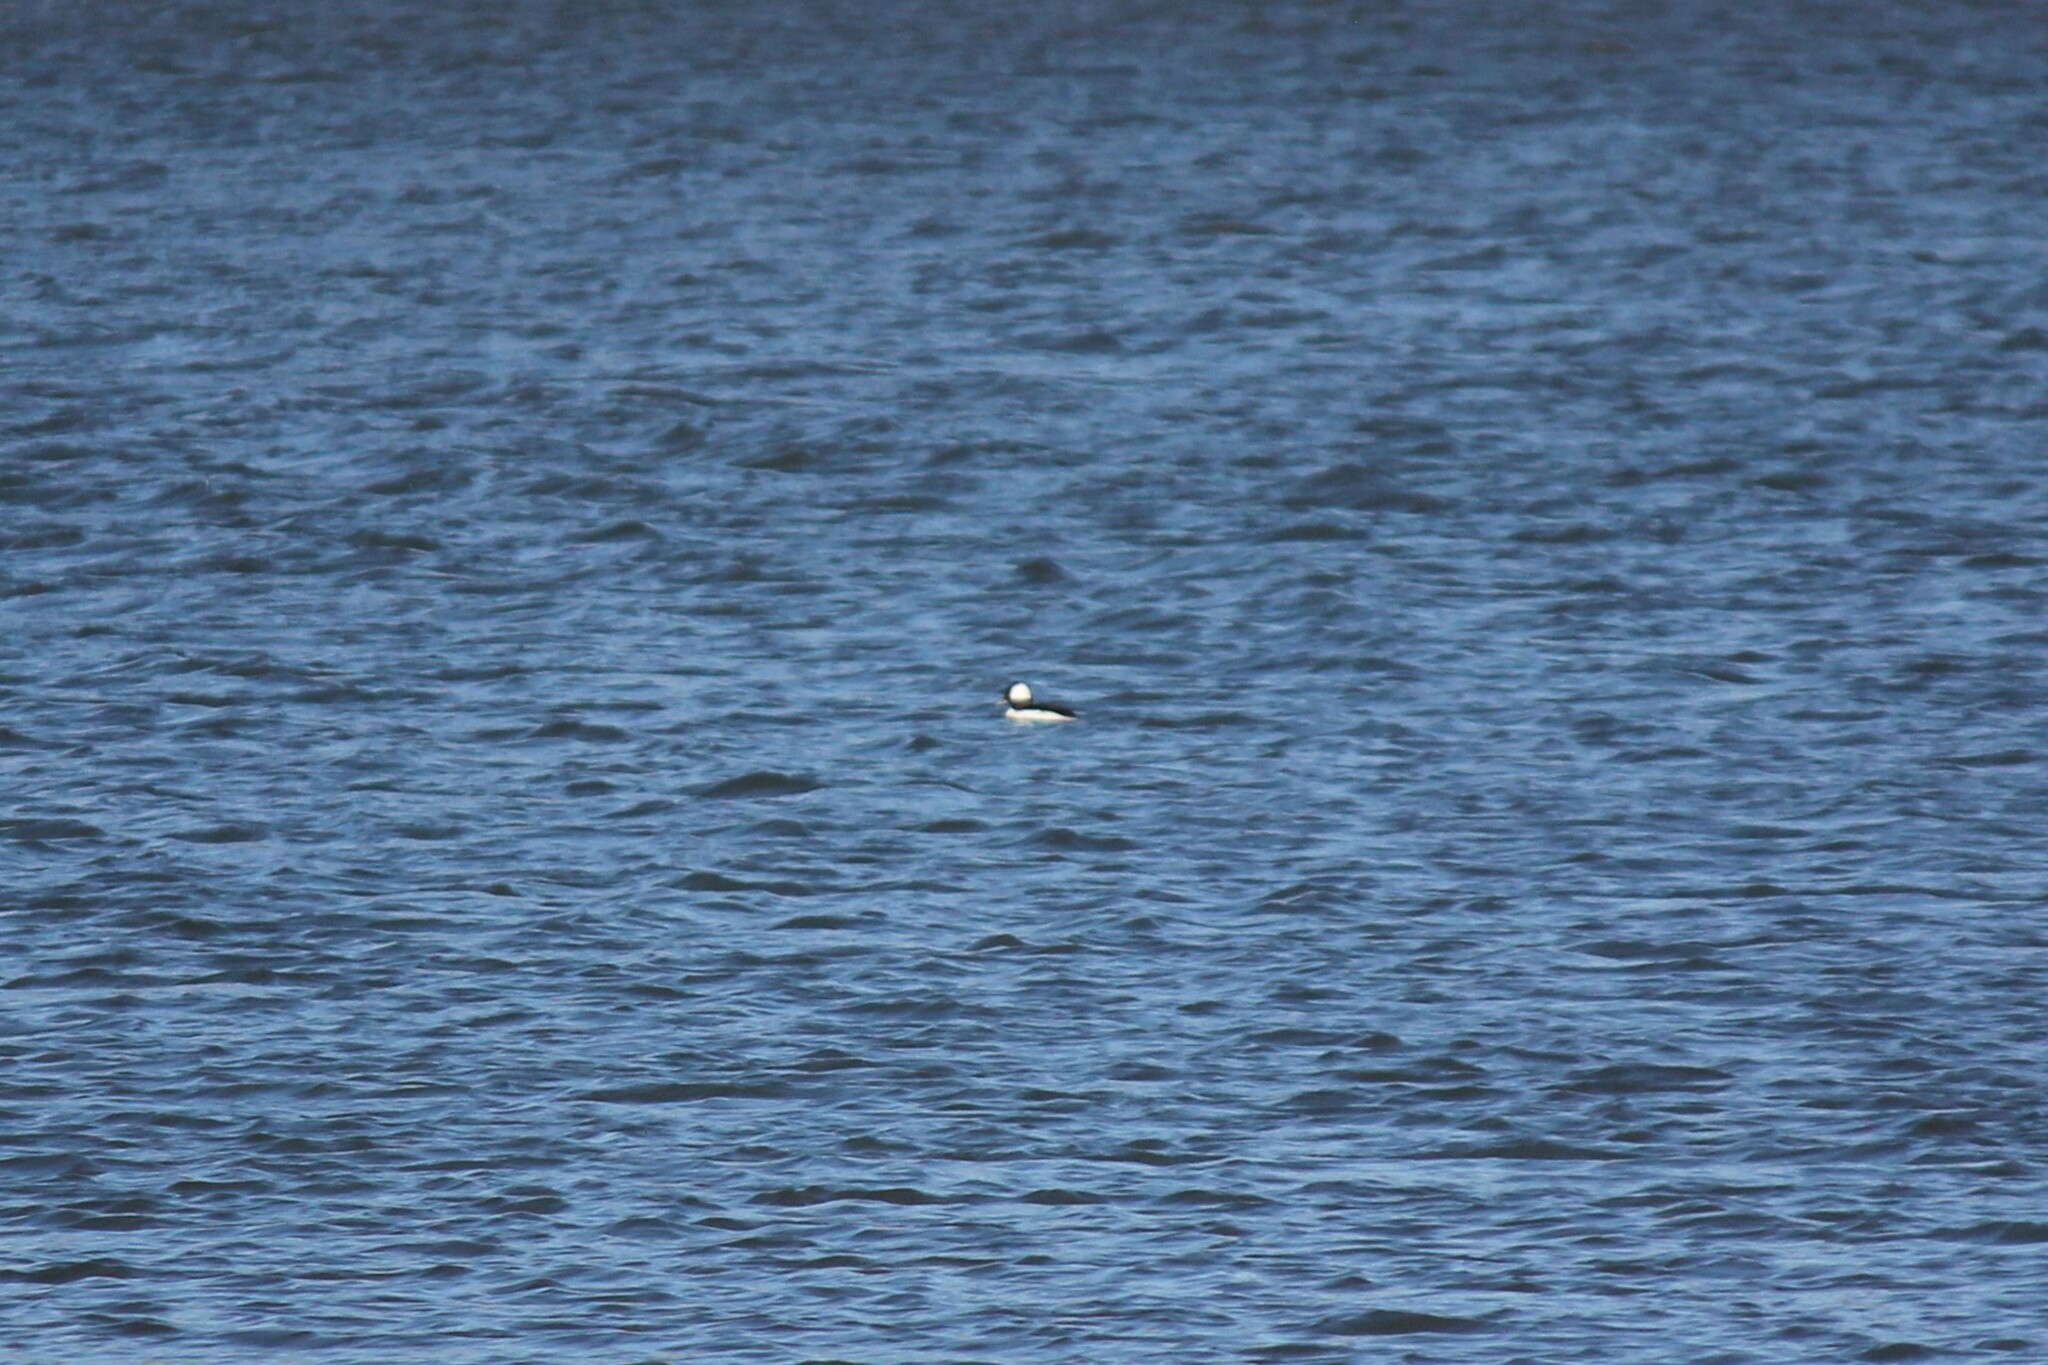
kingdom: Animalia
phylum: Chordata
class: Aves
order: Anseriformes
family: Anatidae
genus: Bucephala
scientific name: Bucephala albeola
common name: Bufflehead
